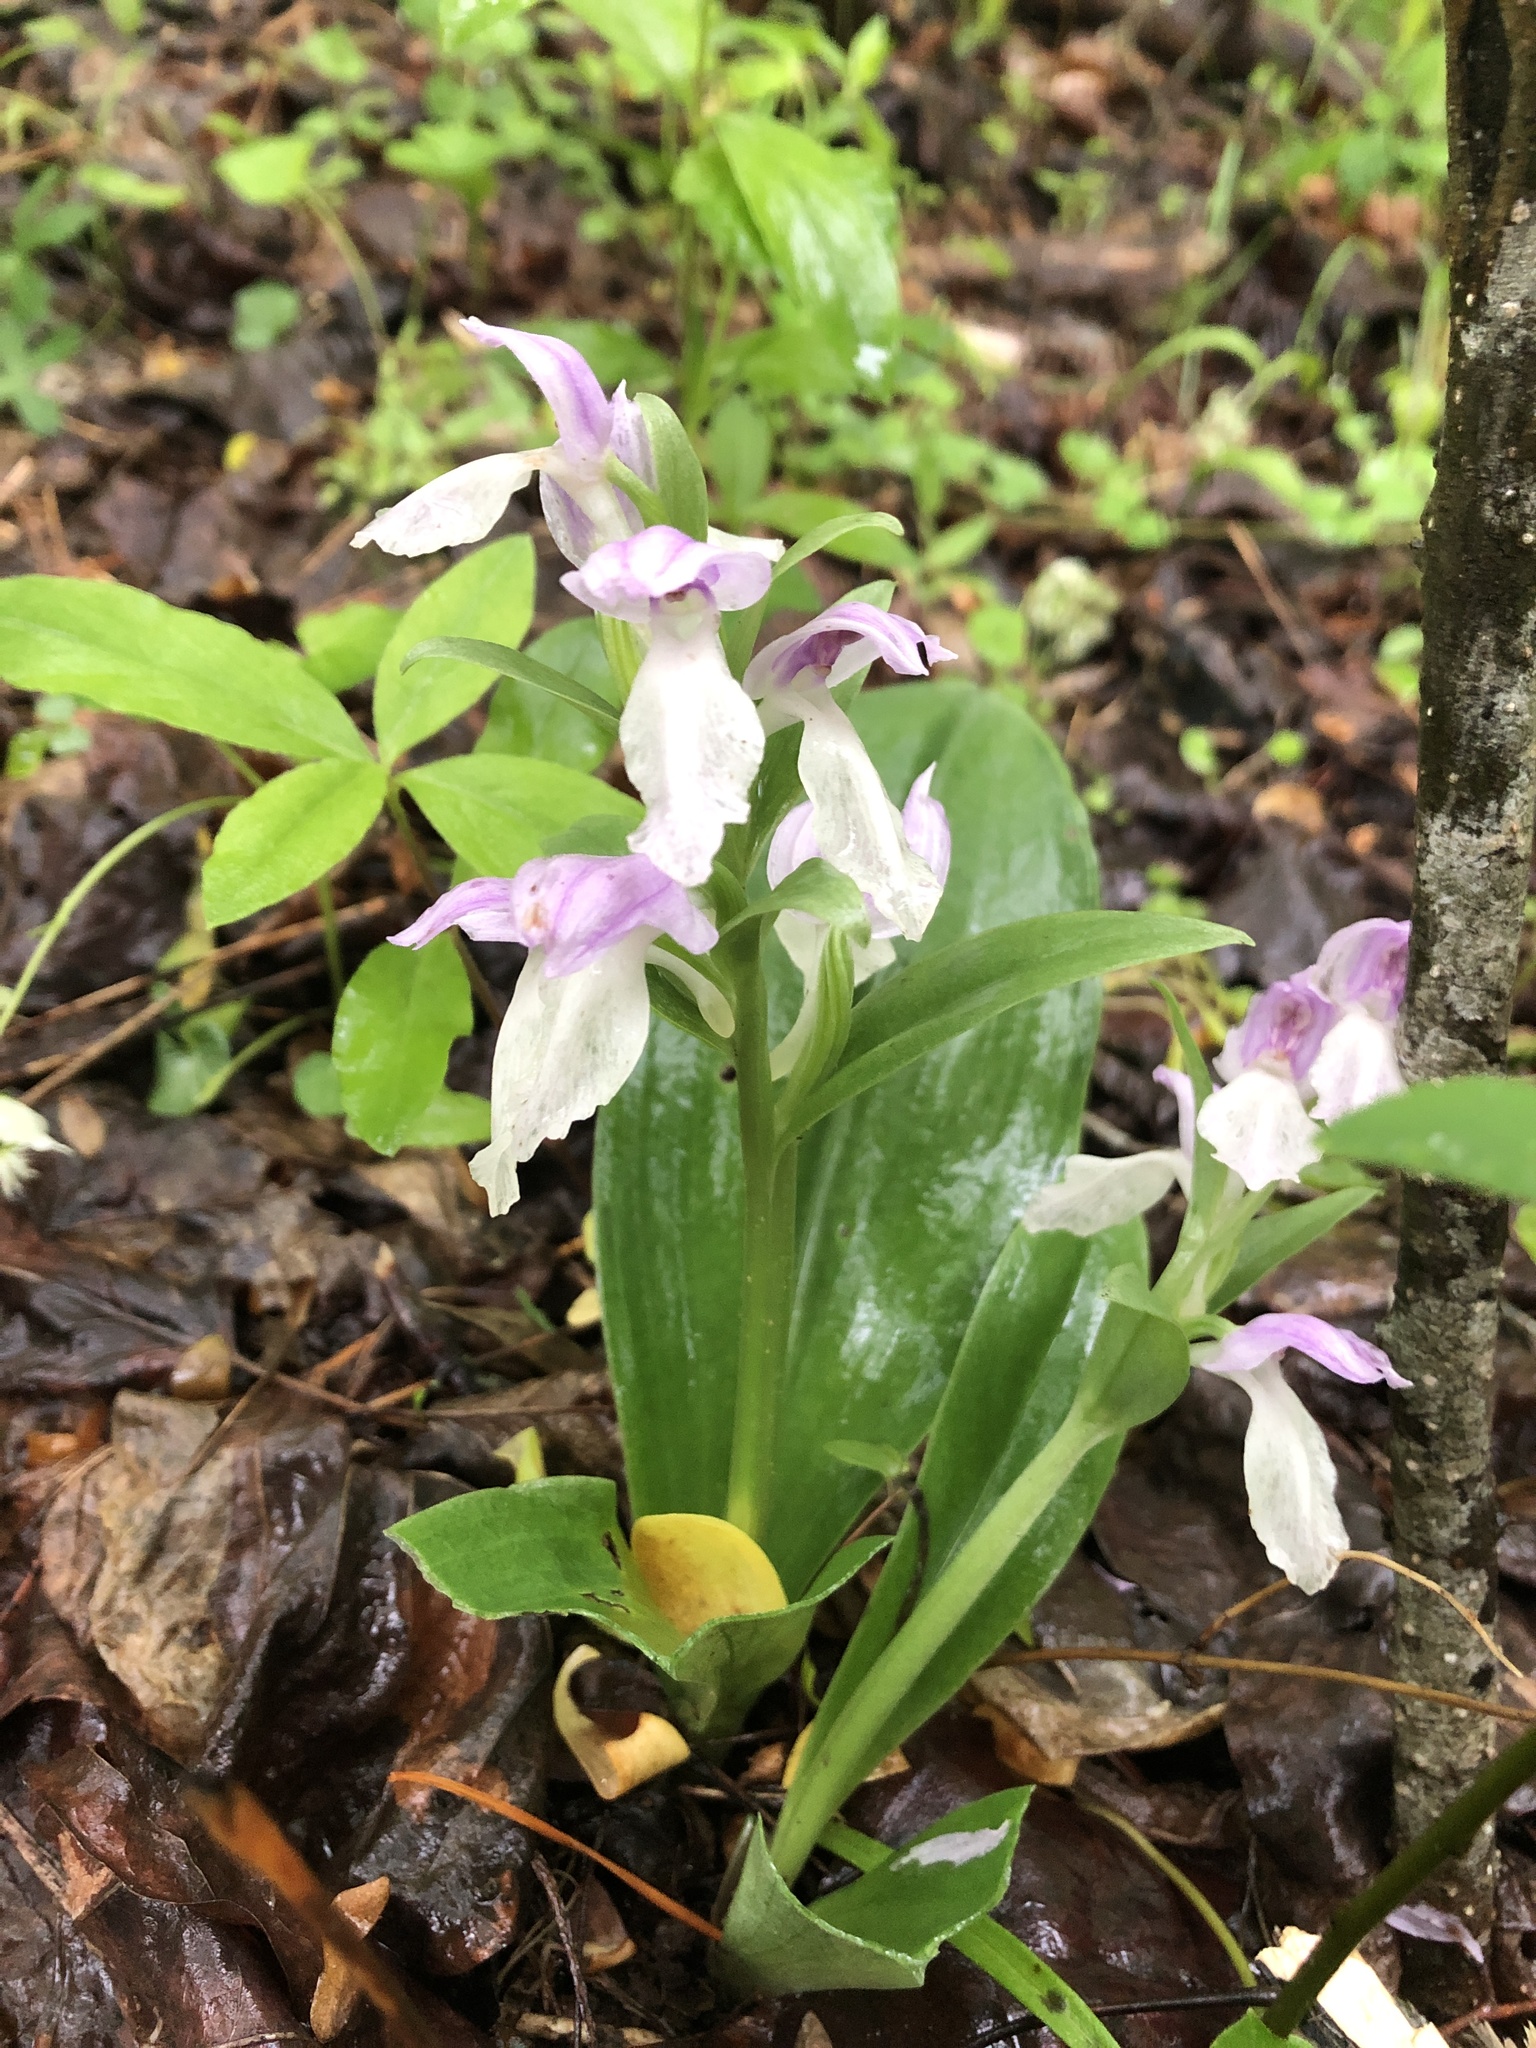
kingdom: Plantae
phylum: Tracheophyta
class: Liliopsida
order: Asparagales
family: Orchidaceae
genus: Galearis
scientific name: Galearis spectabilis
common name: Purple-hooded orchis
